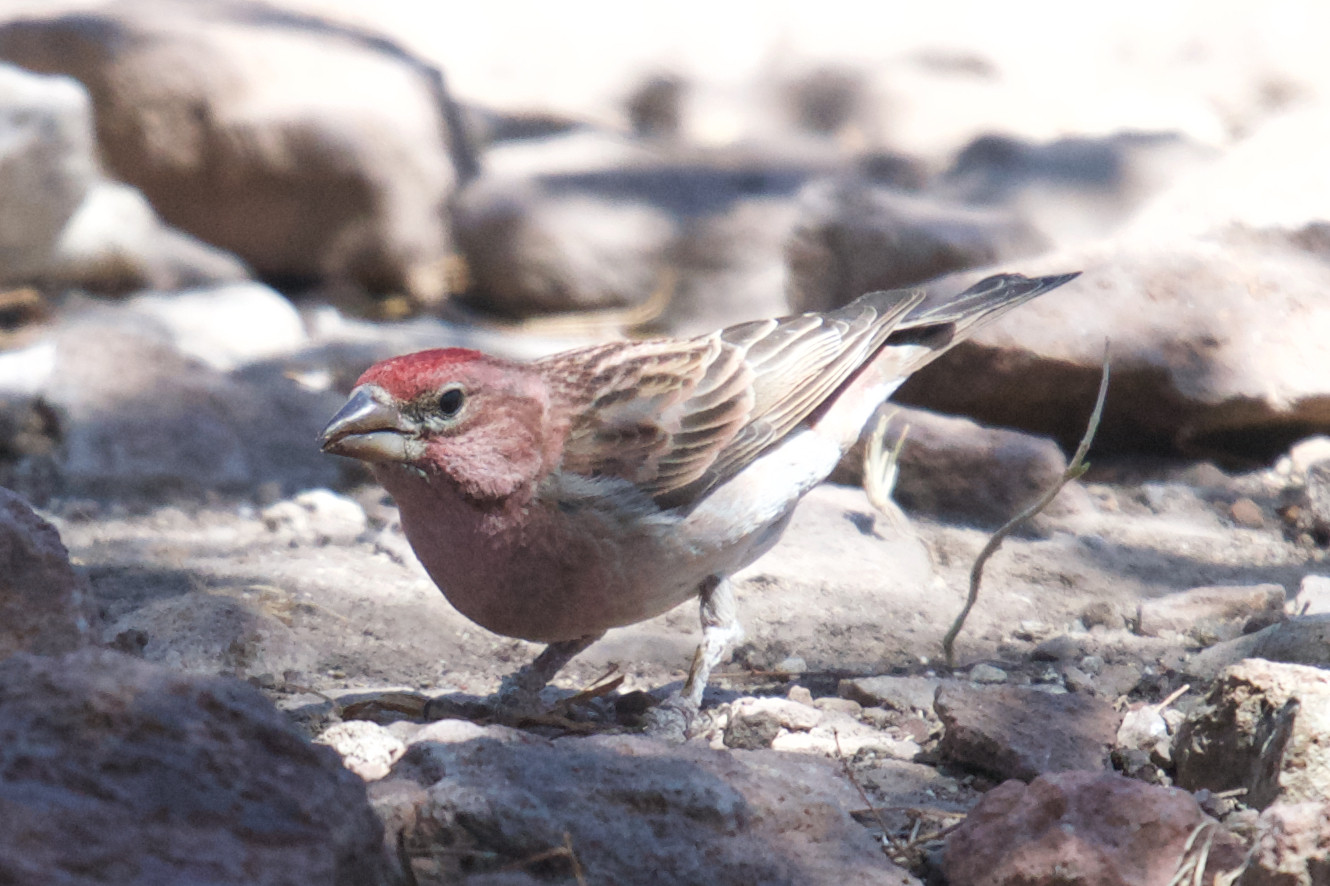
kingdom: Animalia
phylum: Chordata
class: Aves
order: Passeriformes
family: Fringillidae
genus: Haemorhous
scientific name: Haemorhous cassinii
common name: Cassin's finch
